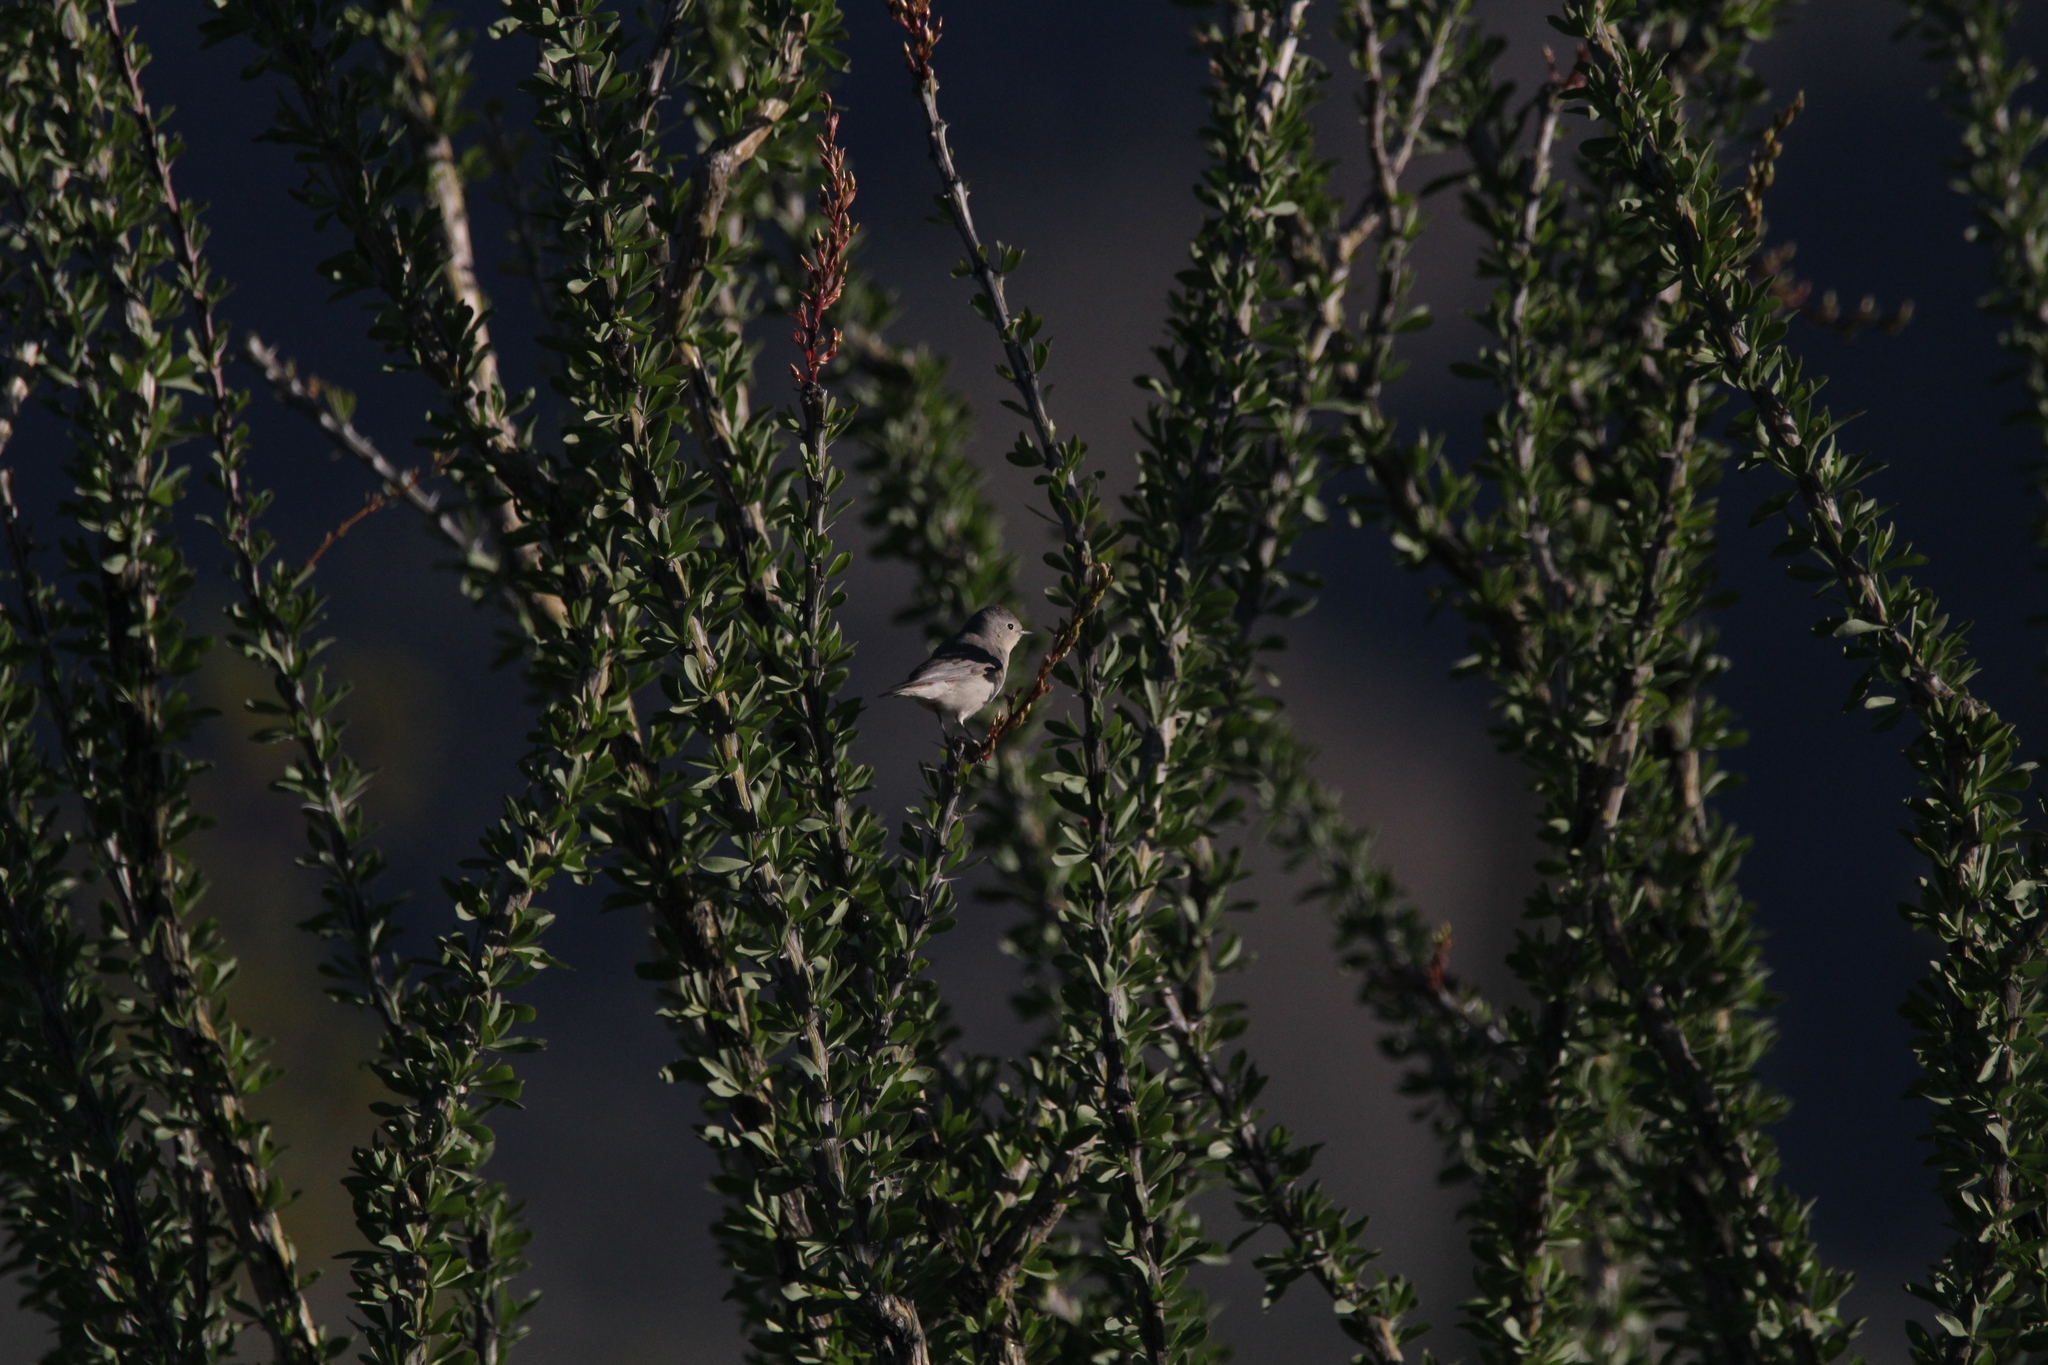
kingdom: Animalia
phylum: Chordata
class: Aves
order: Passeriformes
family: Parulidae
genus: Leiothlypis
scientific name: Leiothlypis luciae
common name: Lucy's warbler
